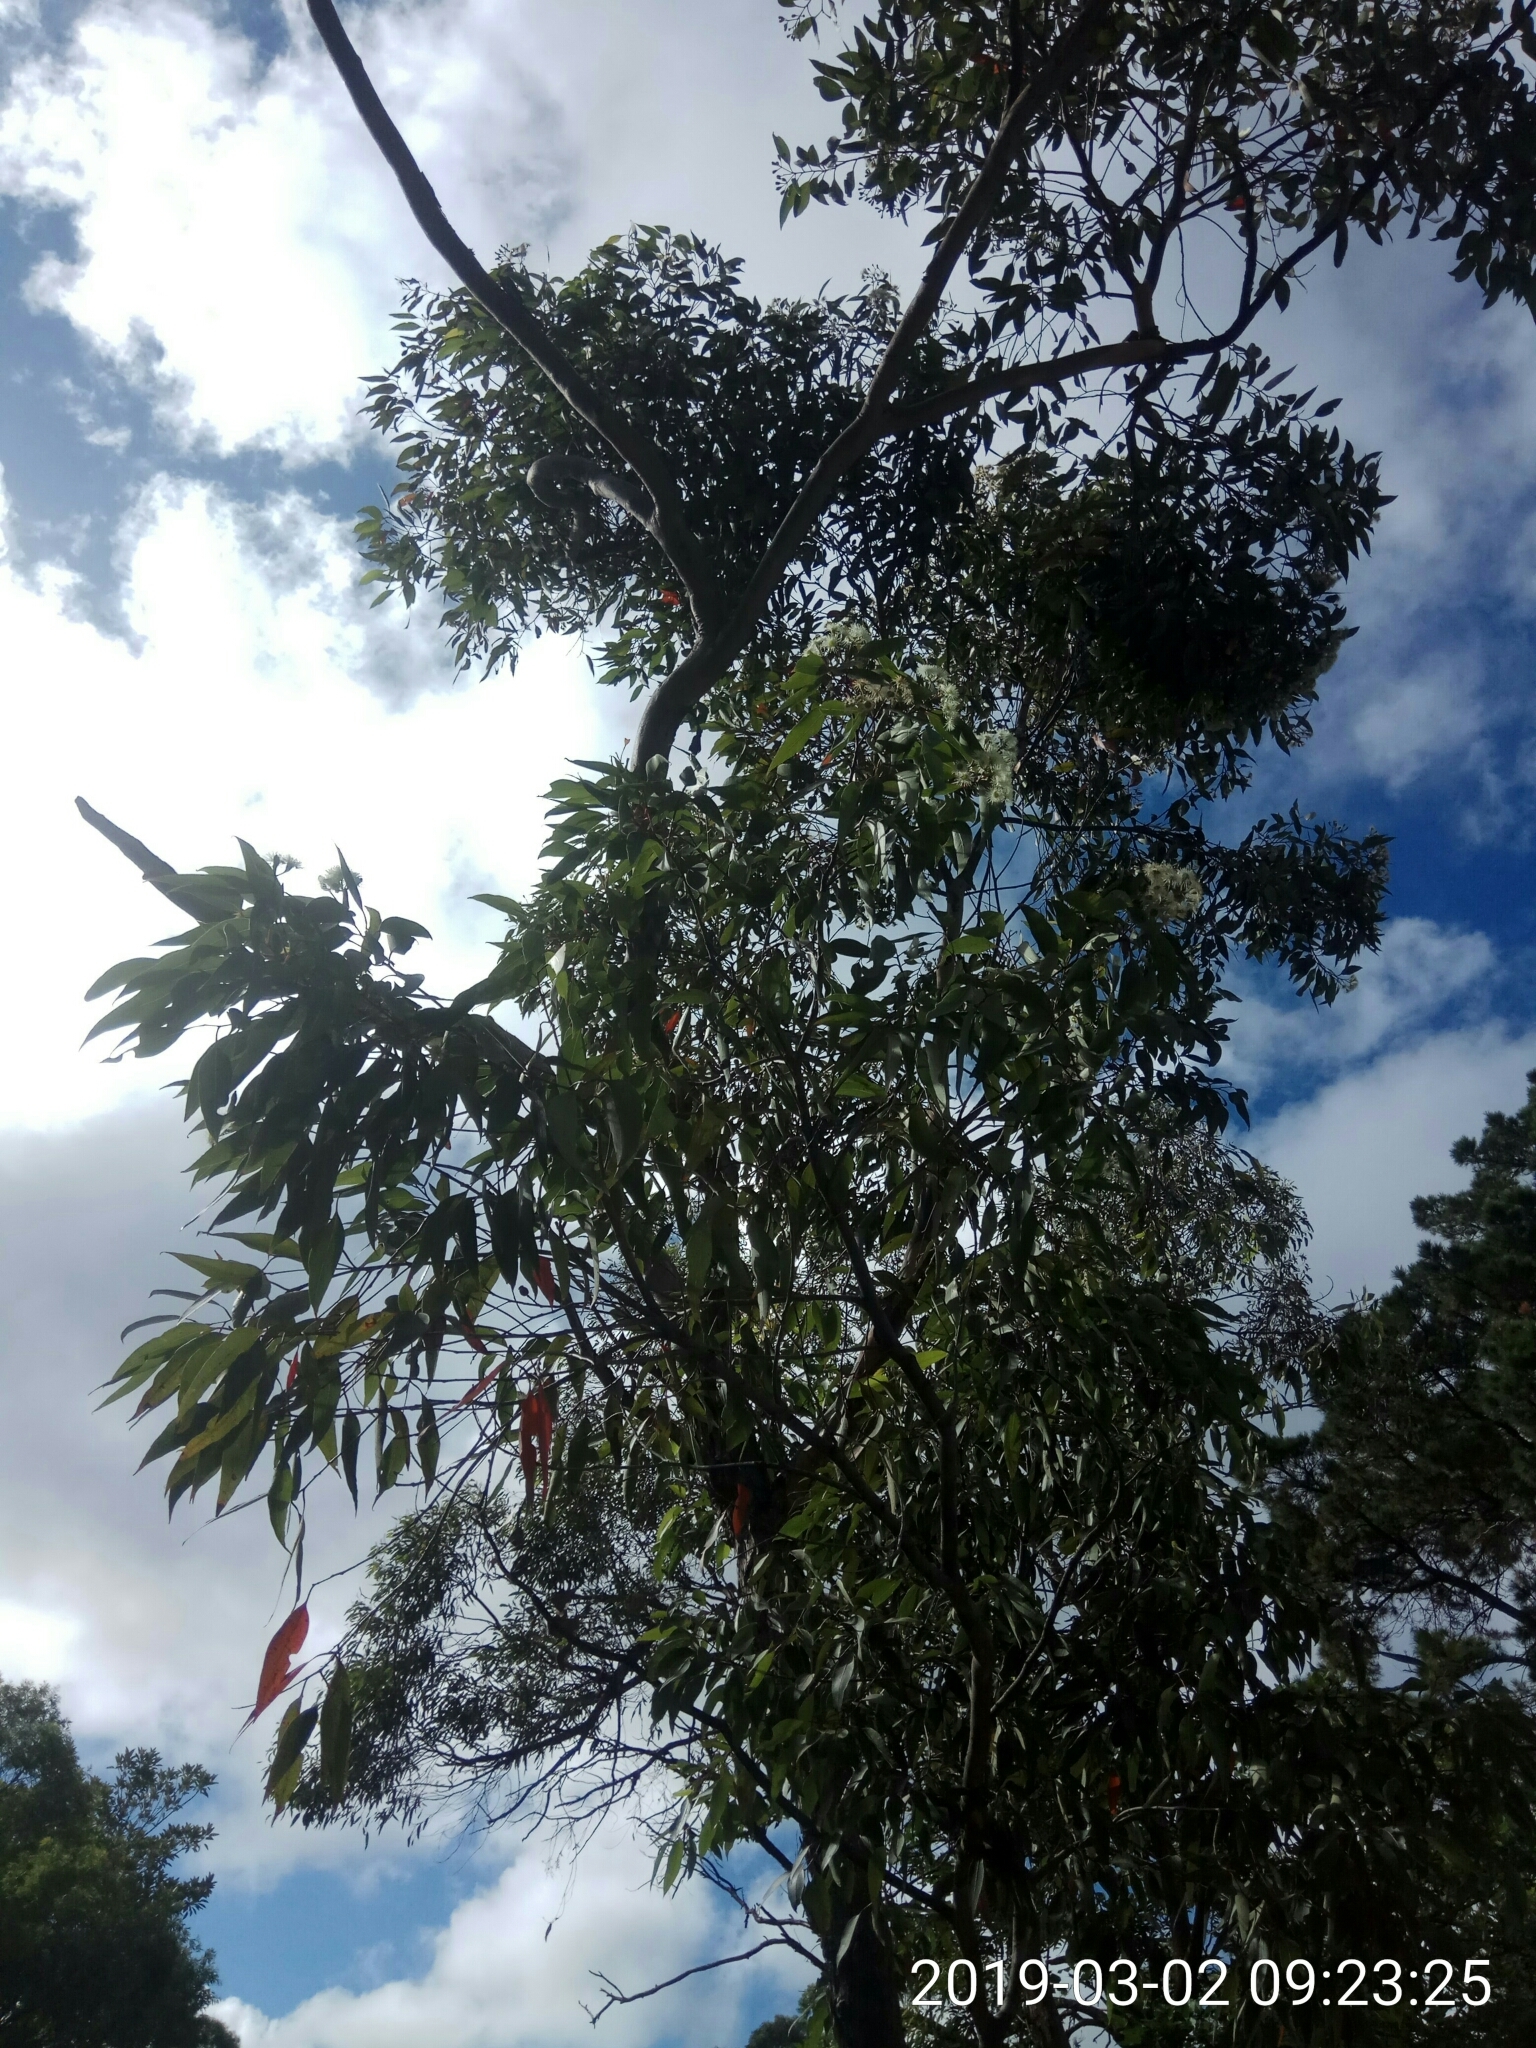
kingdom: Plantae
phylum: Tracheophyta
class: Magnoliopsida
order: Myrtales
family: Myrtaceae
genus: Corymbia
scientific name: Corymbia gummifera
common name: Red bloodwood
